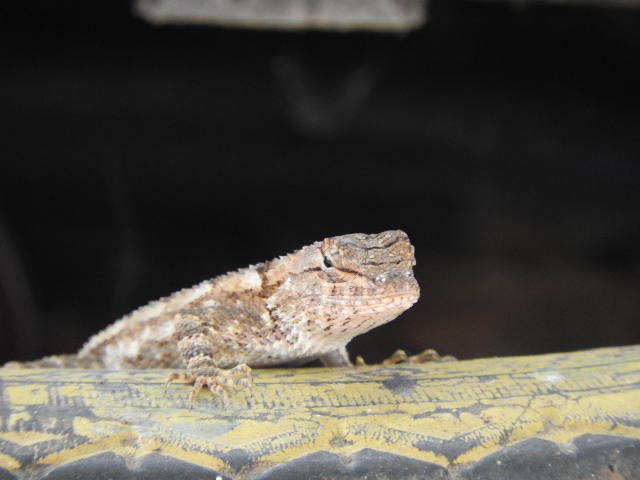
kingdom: Animalia
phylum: Chordata
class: Squamata
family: Phrynosomatidae
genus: Sceloporus
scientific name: Sceloporus nelsoni
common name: Nelson's spiny lizard
